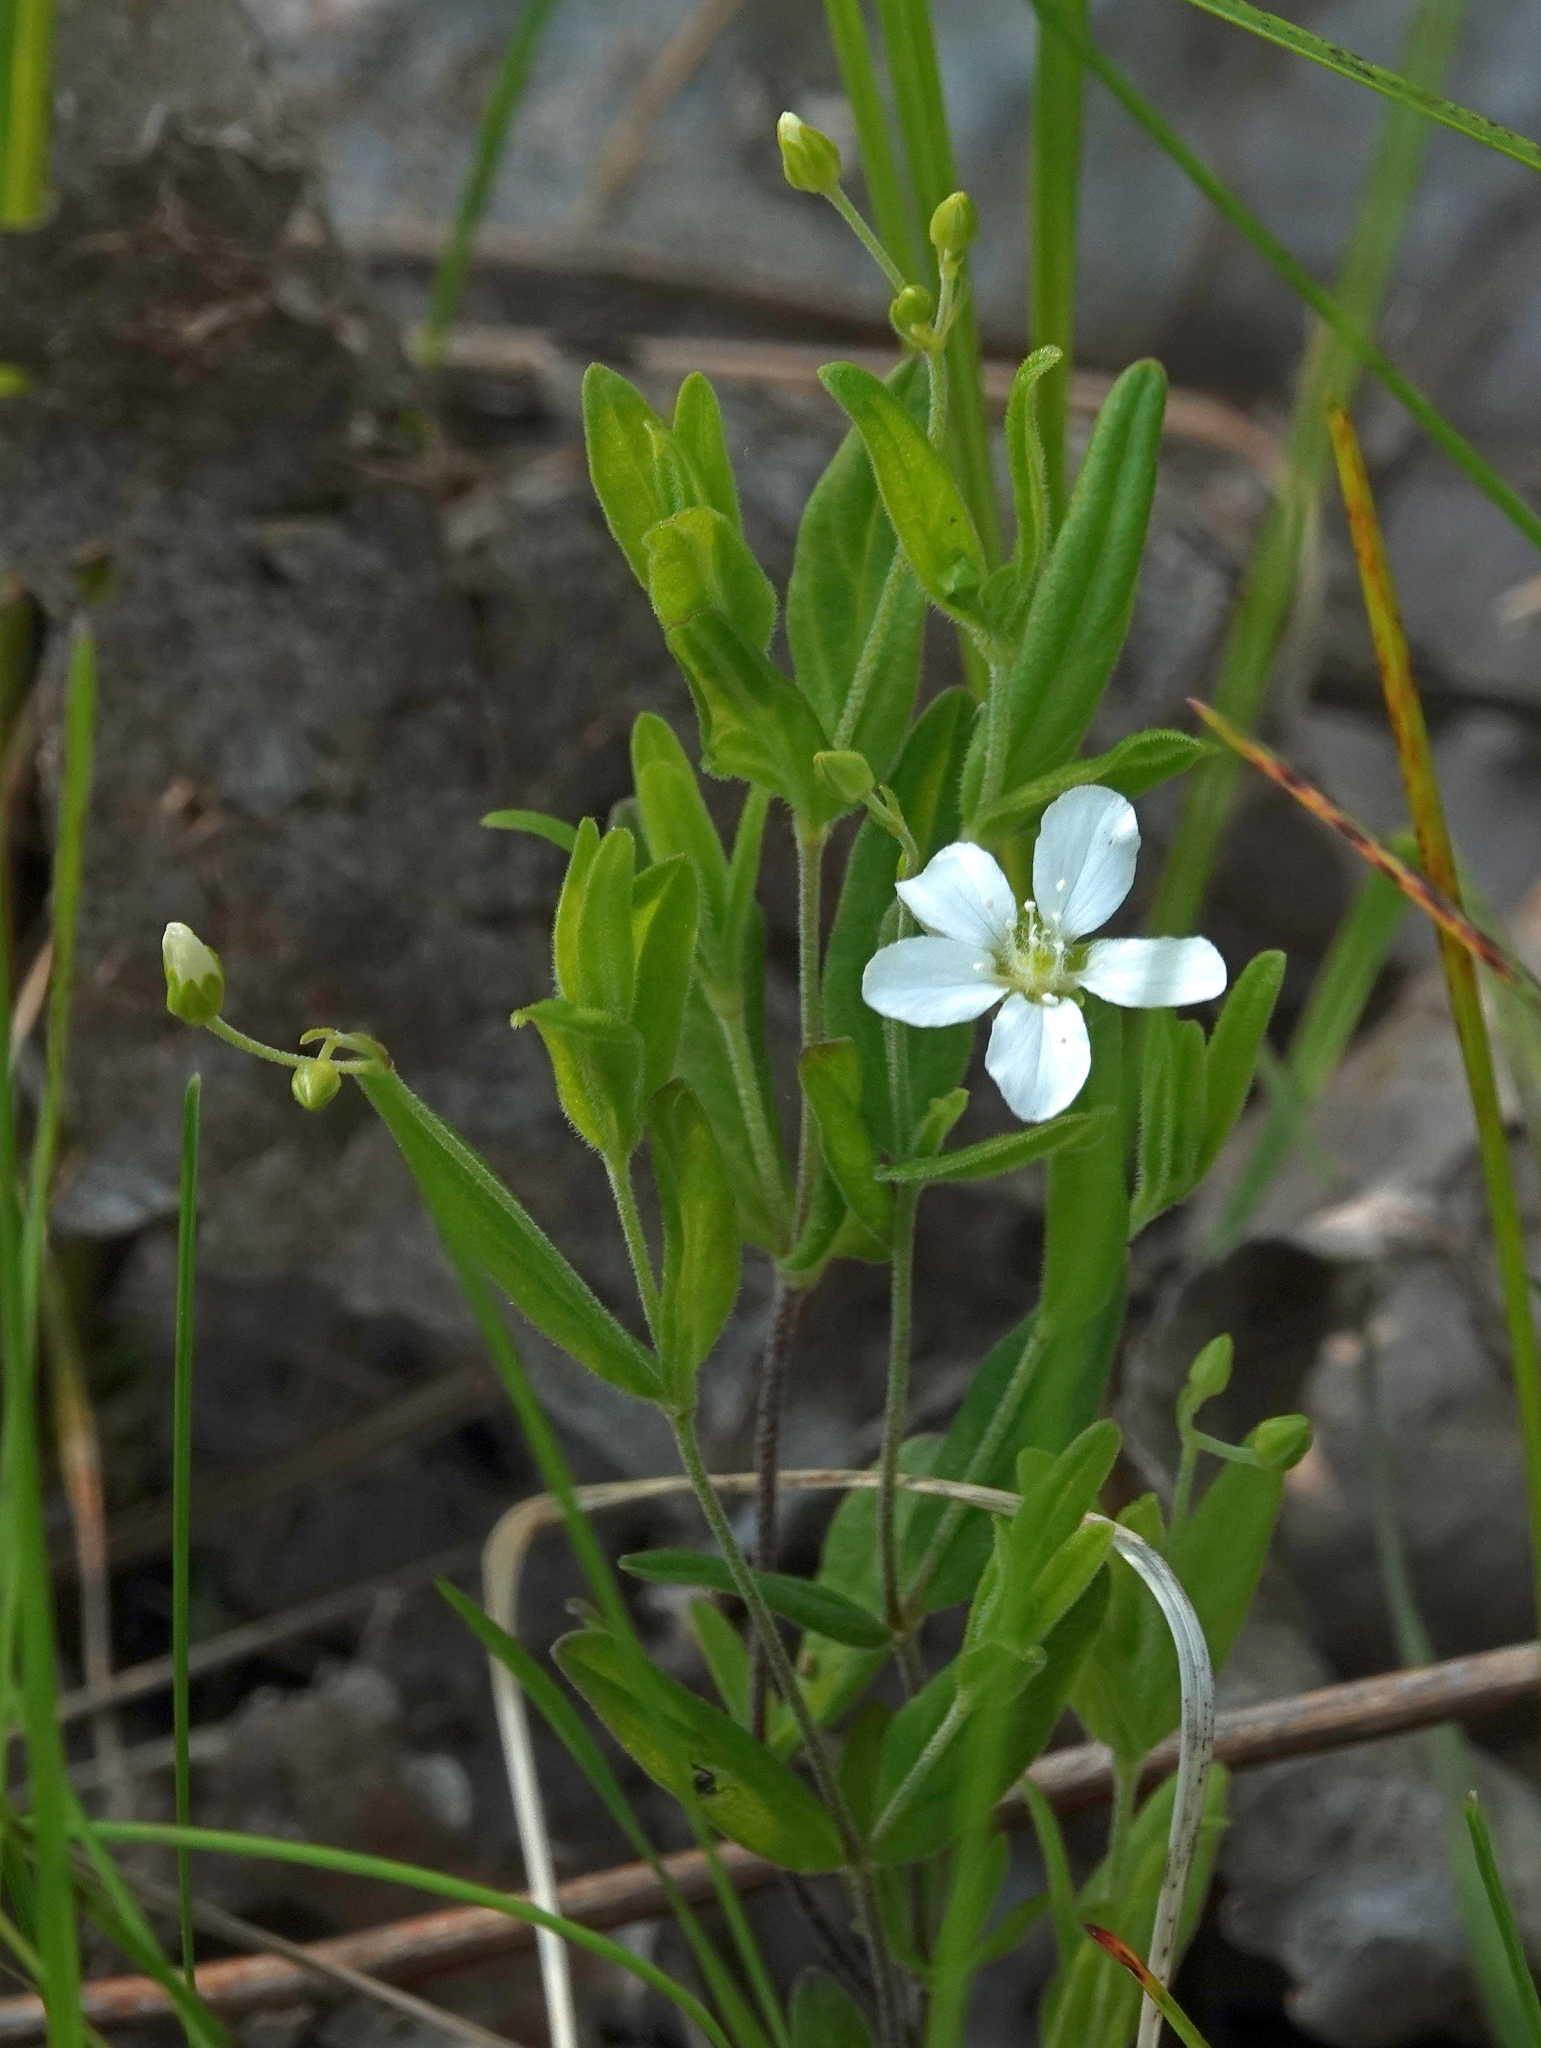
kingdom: Plantae
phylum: Tracheophyta
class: Magnoliopsida
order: Caryophyllales
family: Caryophyllaceae
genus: Moehringia
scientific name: Moehringia lateriflora
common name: Blunt-leaved sandwort
